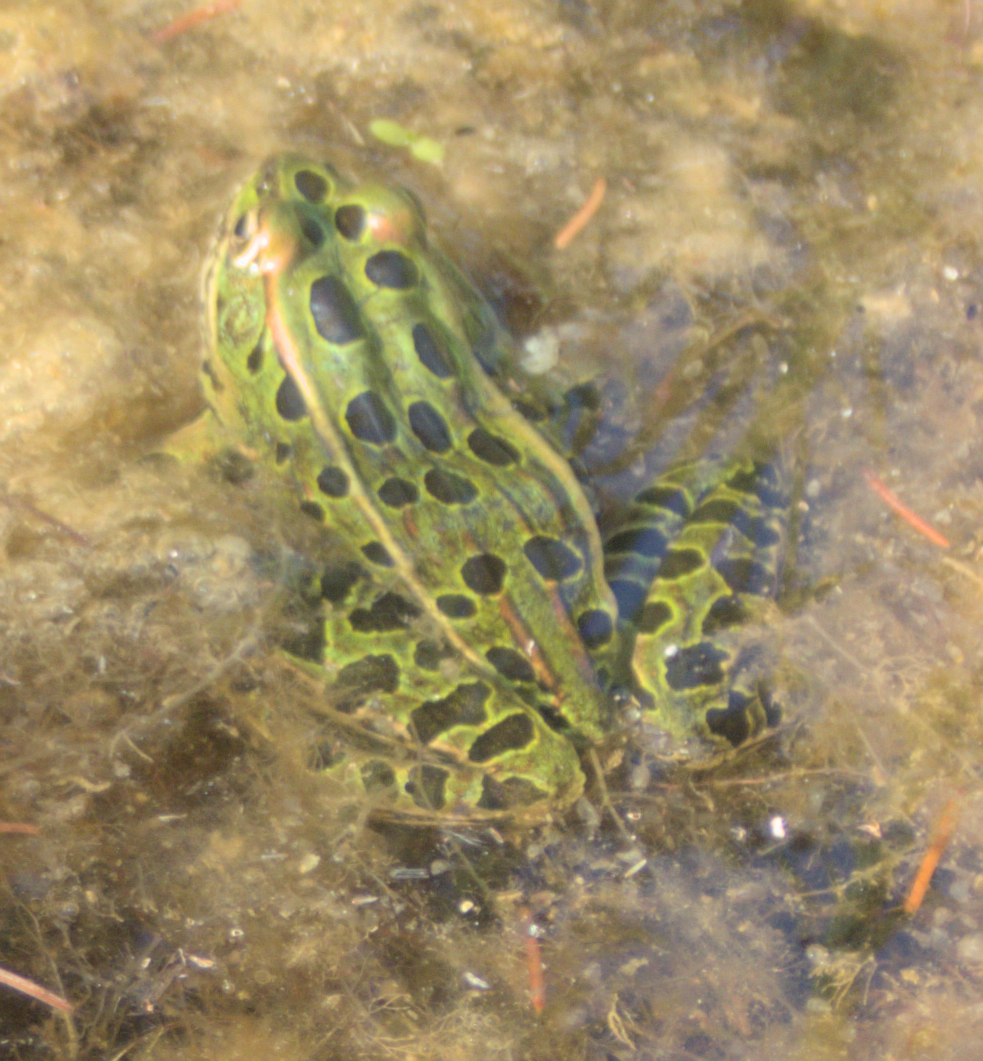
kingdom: Animalia
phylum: Chordata
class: Amphibia
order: Anura
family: Ranidae
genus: Lithobates
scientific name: Lithobates pipiens
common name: Northern leopard frog
